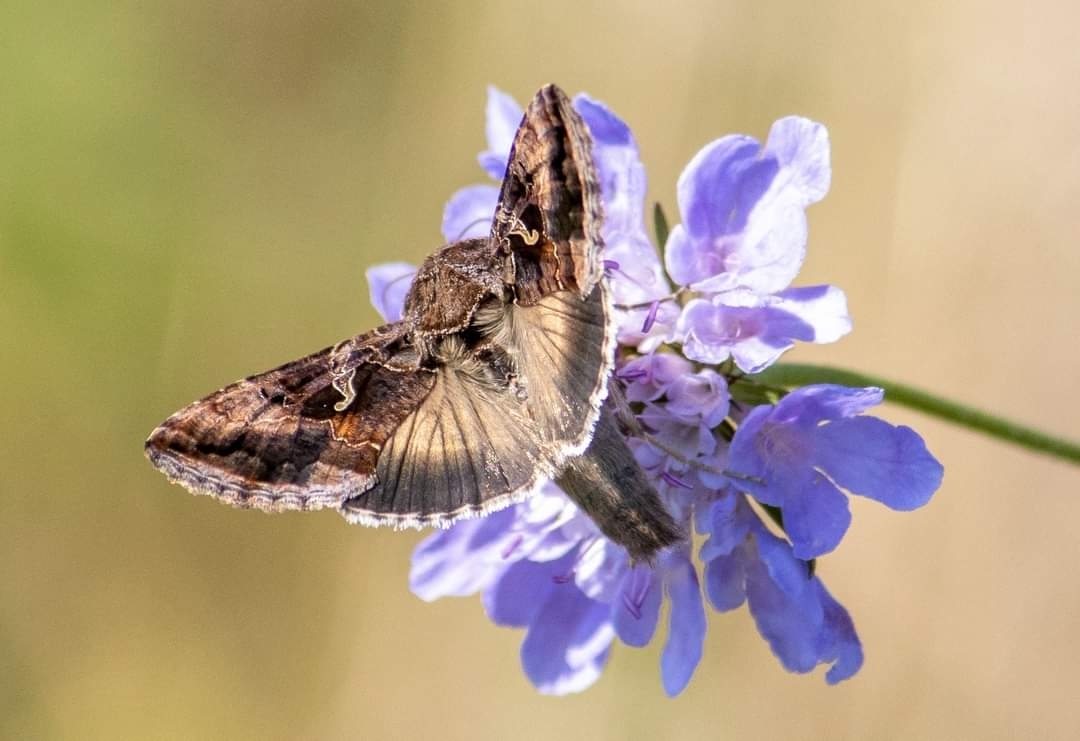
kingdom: Animalia
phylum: Arthropoda
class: Insecta
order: Lepidoptera
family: Noctuidae
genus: Autographa
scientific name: Autographa gamma
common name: Silver y
